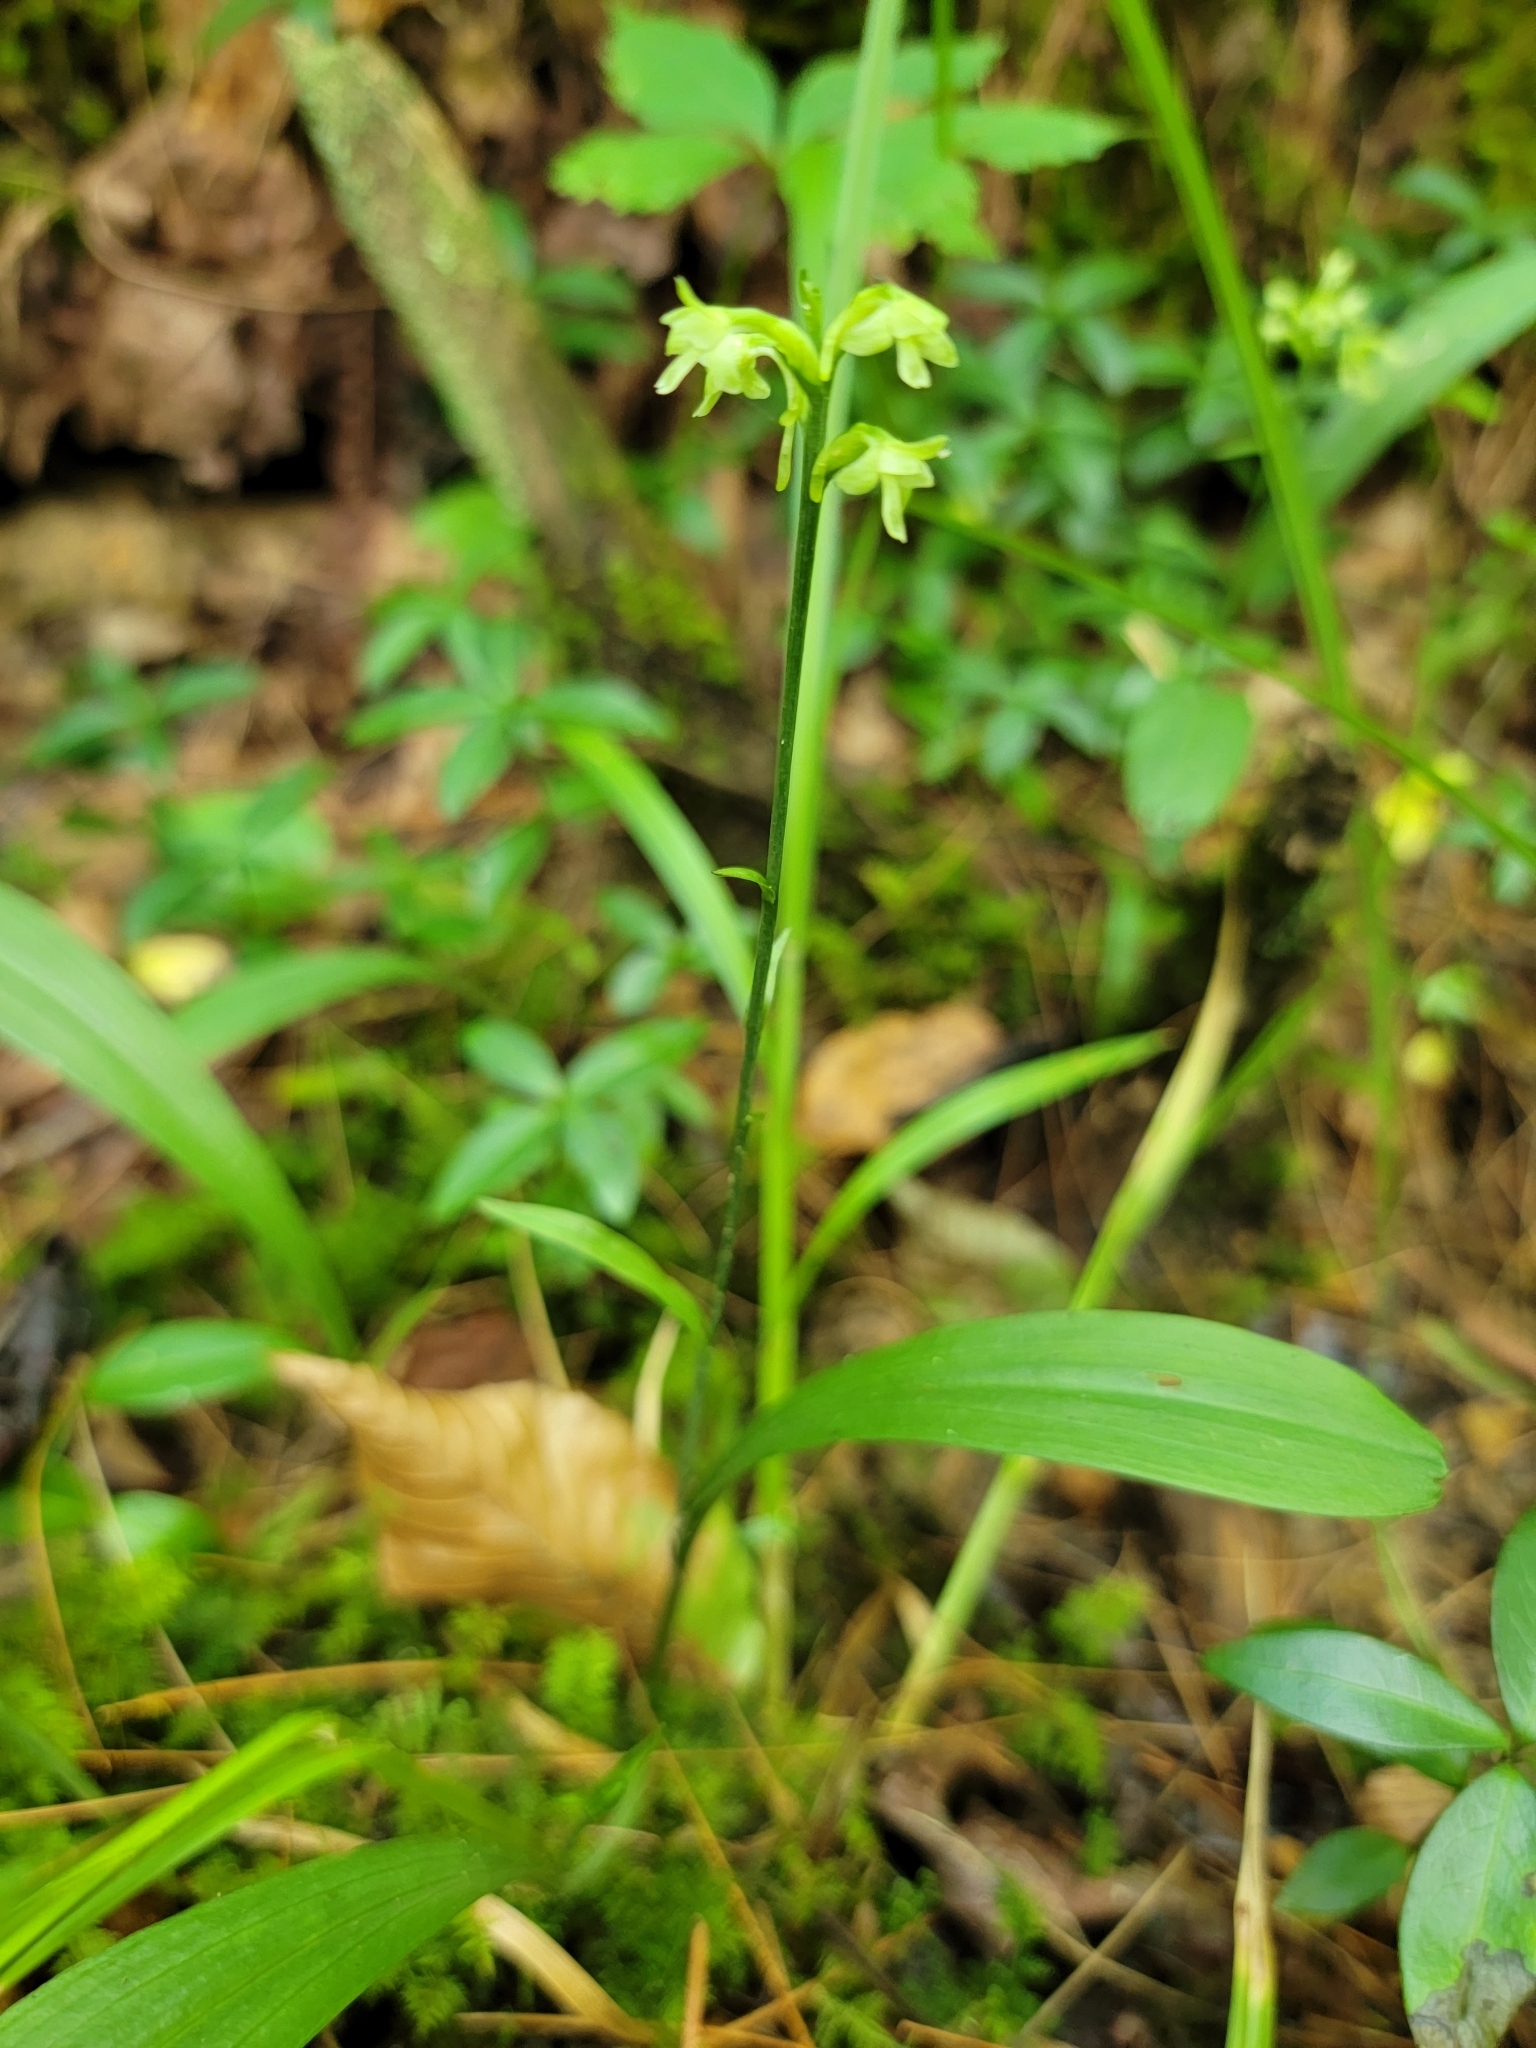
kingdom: Plantae
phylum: Tracheophyta
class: Liliopsida
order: Asparagales
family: Orchidaceae
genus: Platanthera
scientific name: Platanthera clavellata
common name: Club-spur orchid
